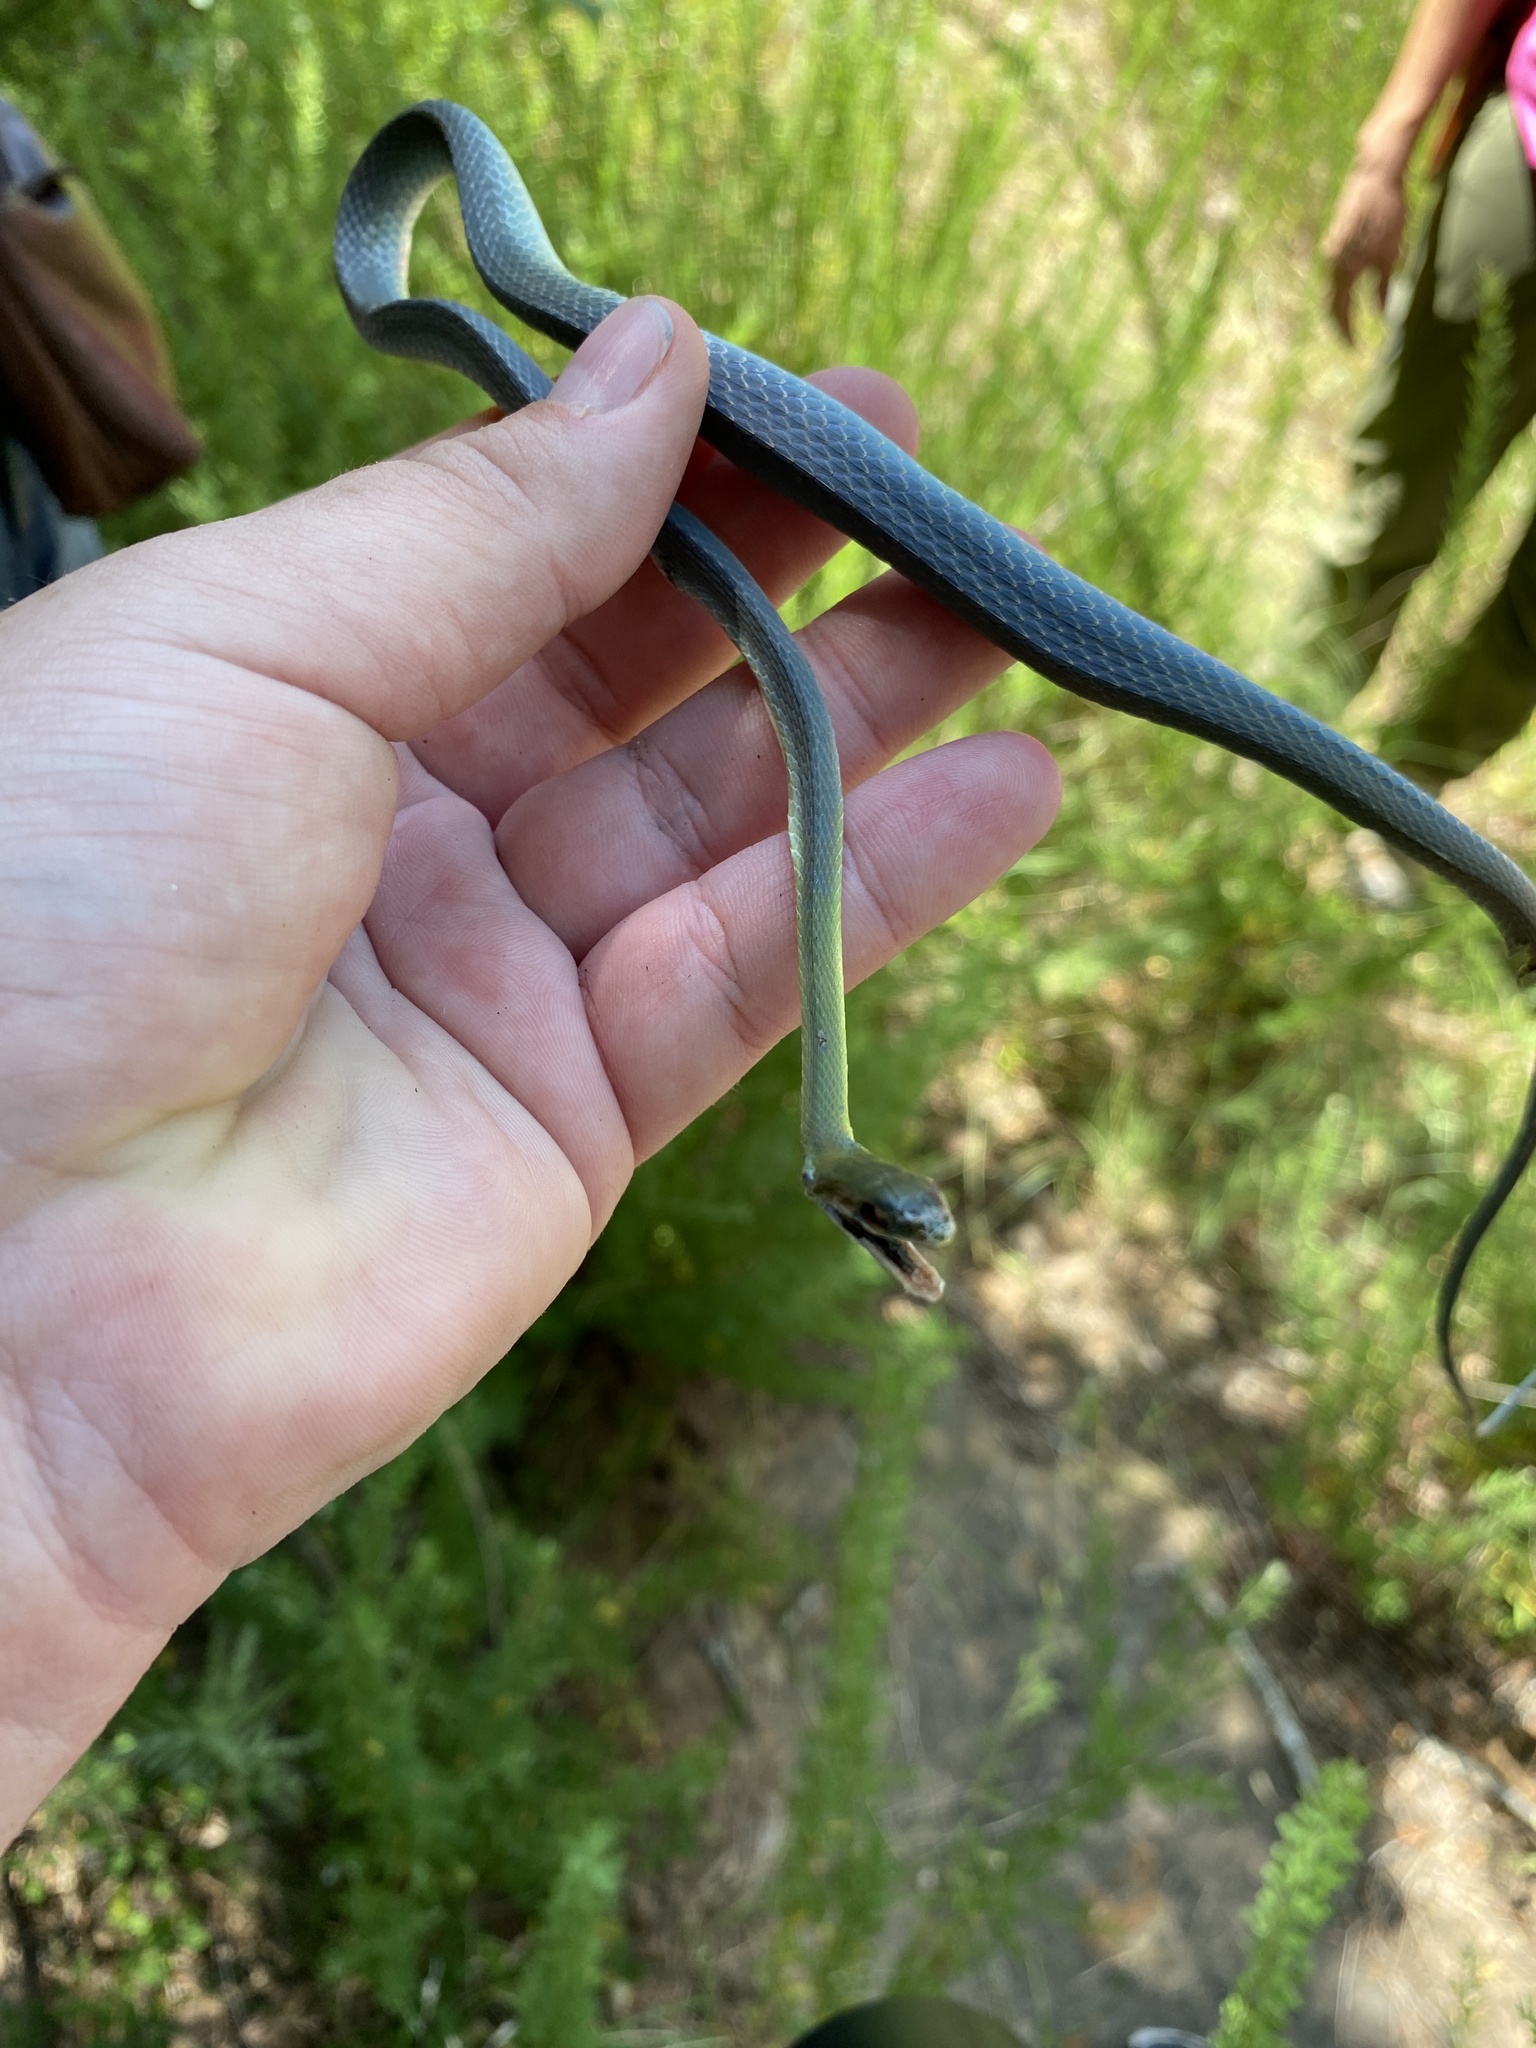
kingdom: Animalia
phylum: Chordata
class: Squamata
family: Colubridae
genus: Opheodrys
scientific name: Opheodrys aestivus
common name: Rough greensnake
